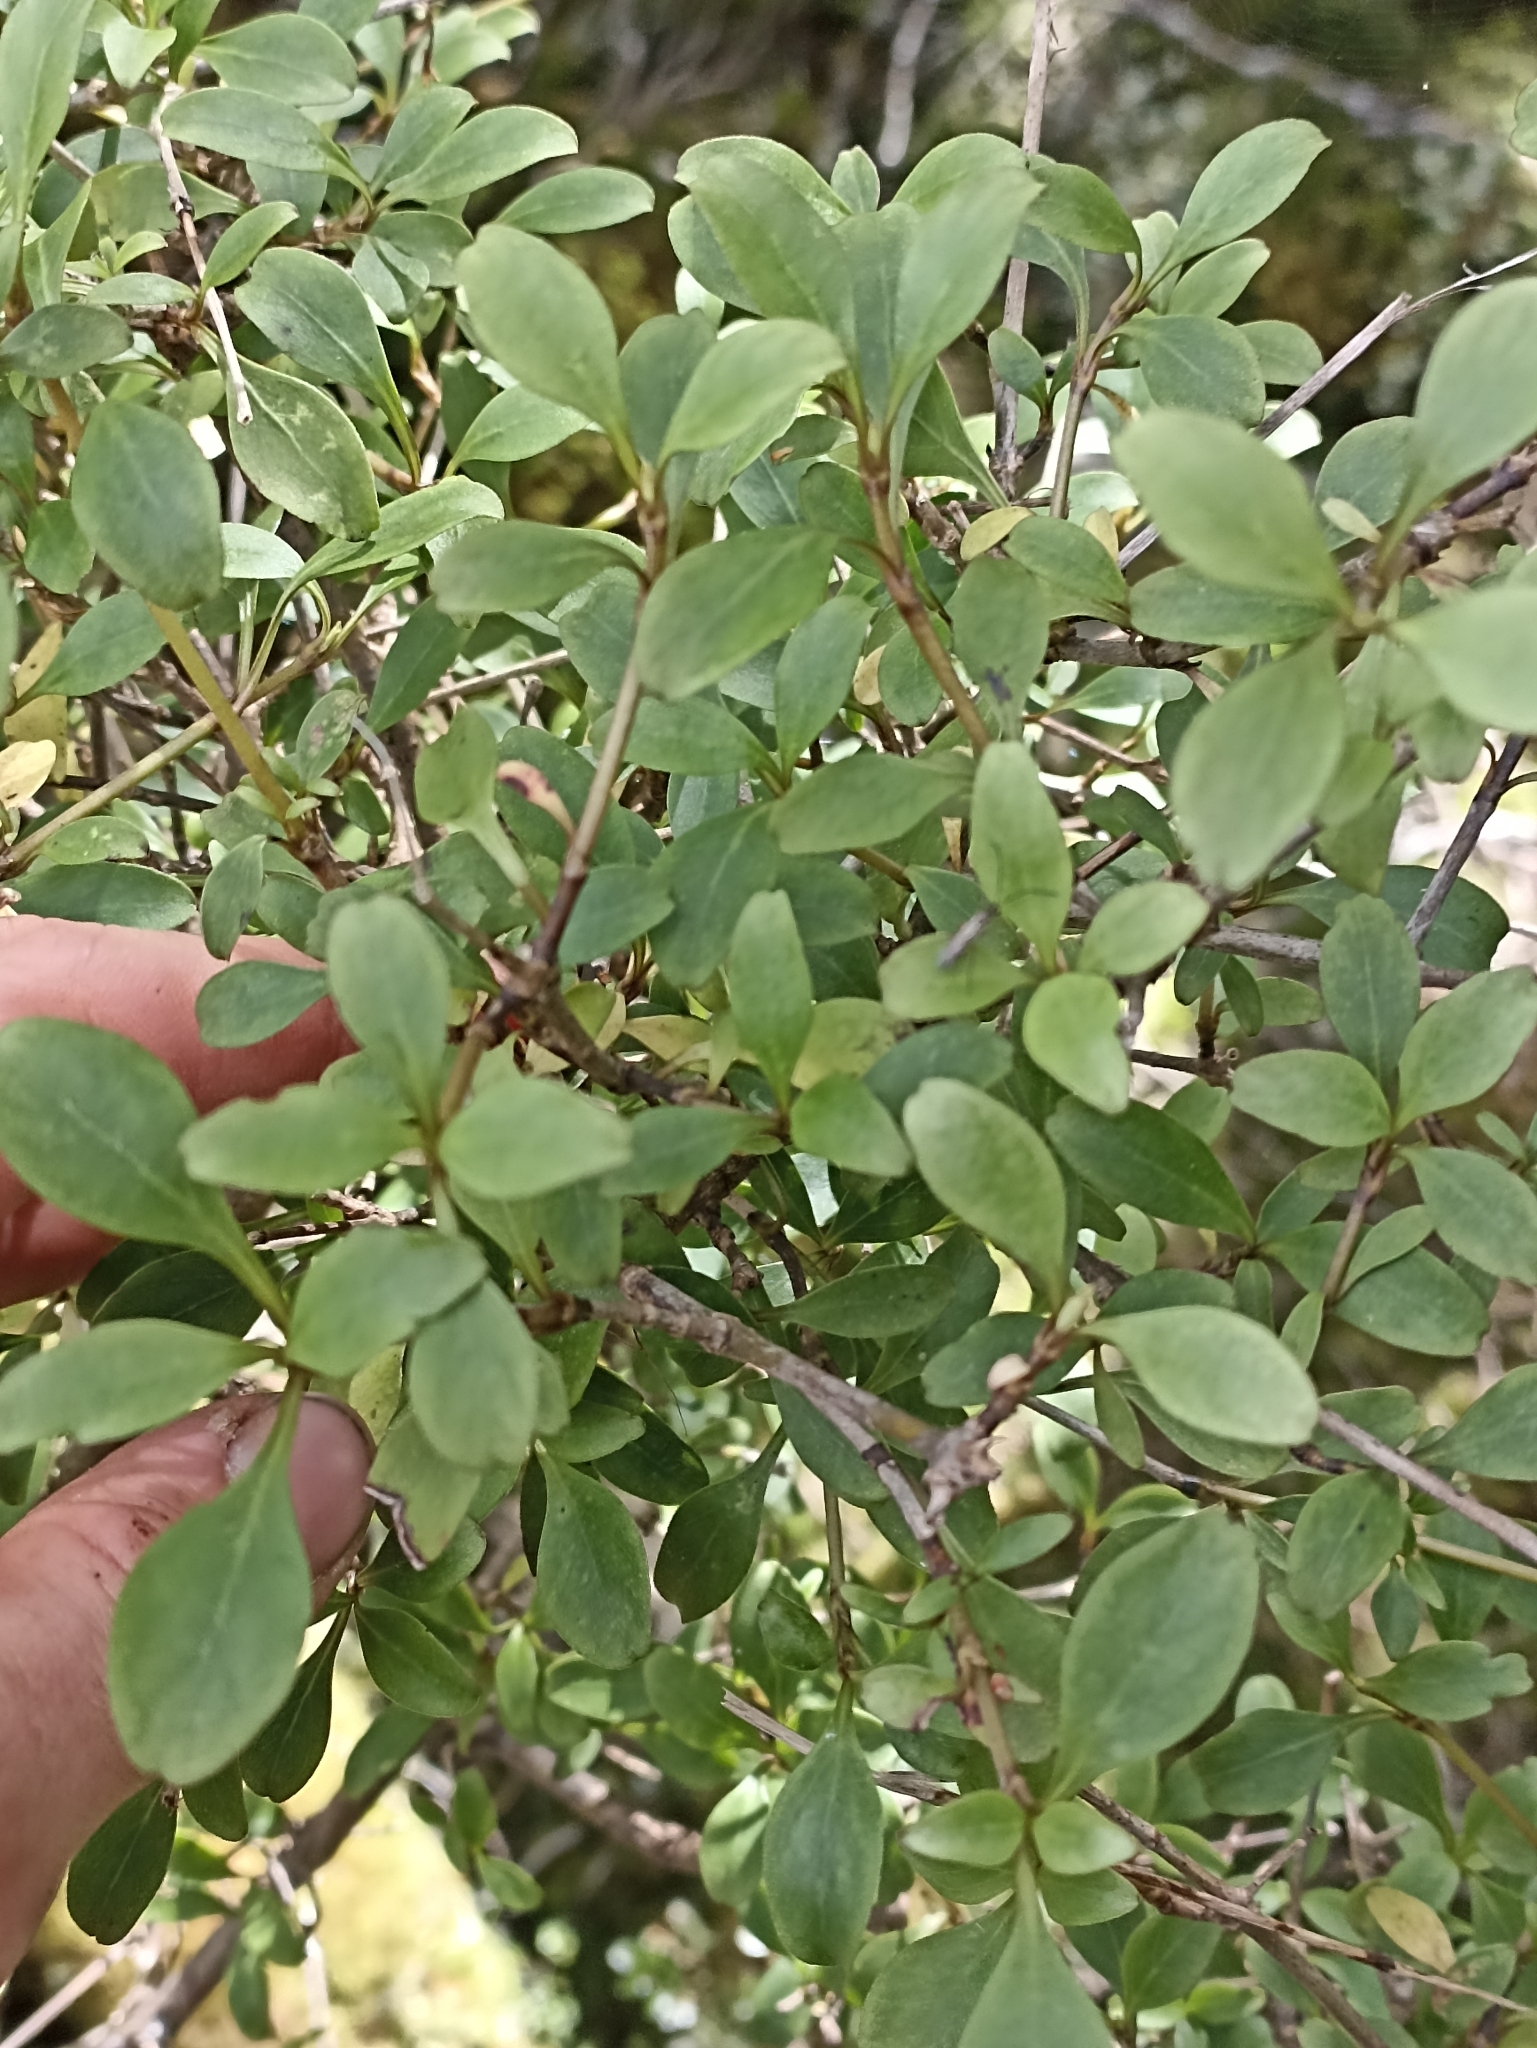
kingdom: Plantae
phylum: Tracheophyta
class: Magnoliopsida
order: Gentianales
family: Rubiaceae
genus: Coprosma
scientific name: Coprosma foetidissima
